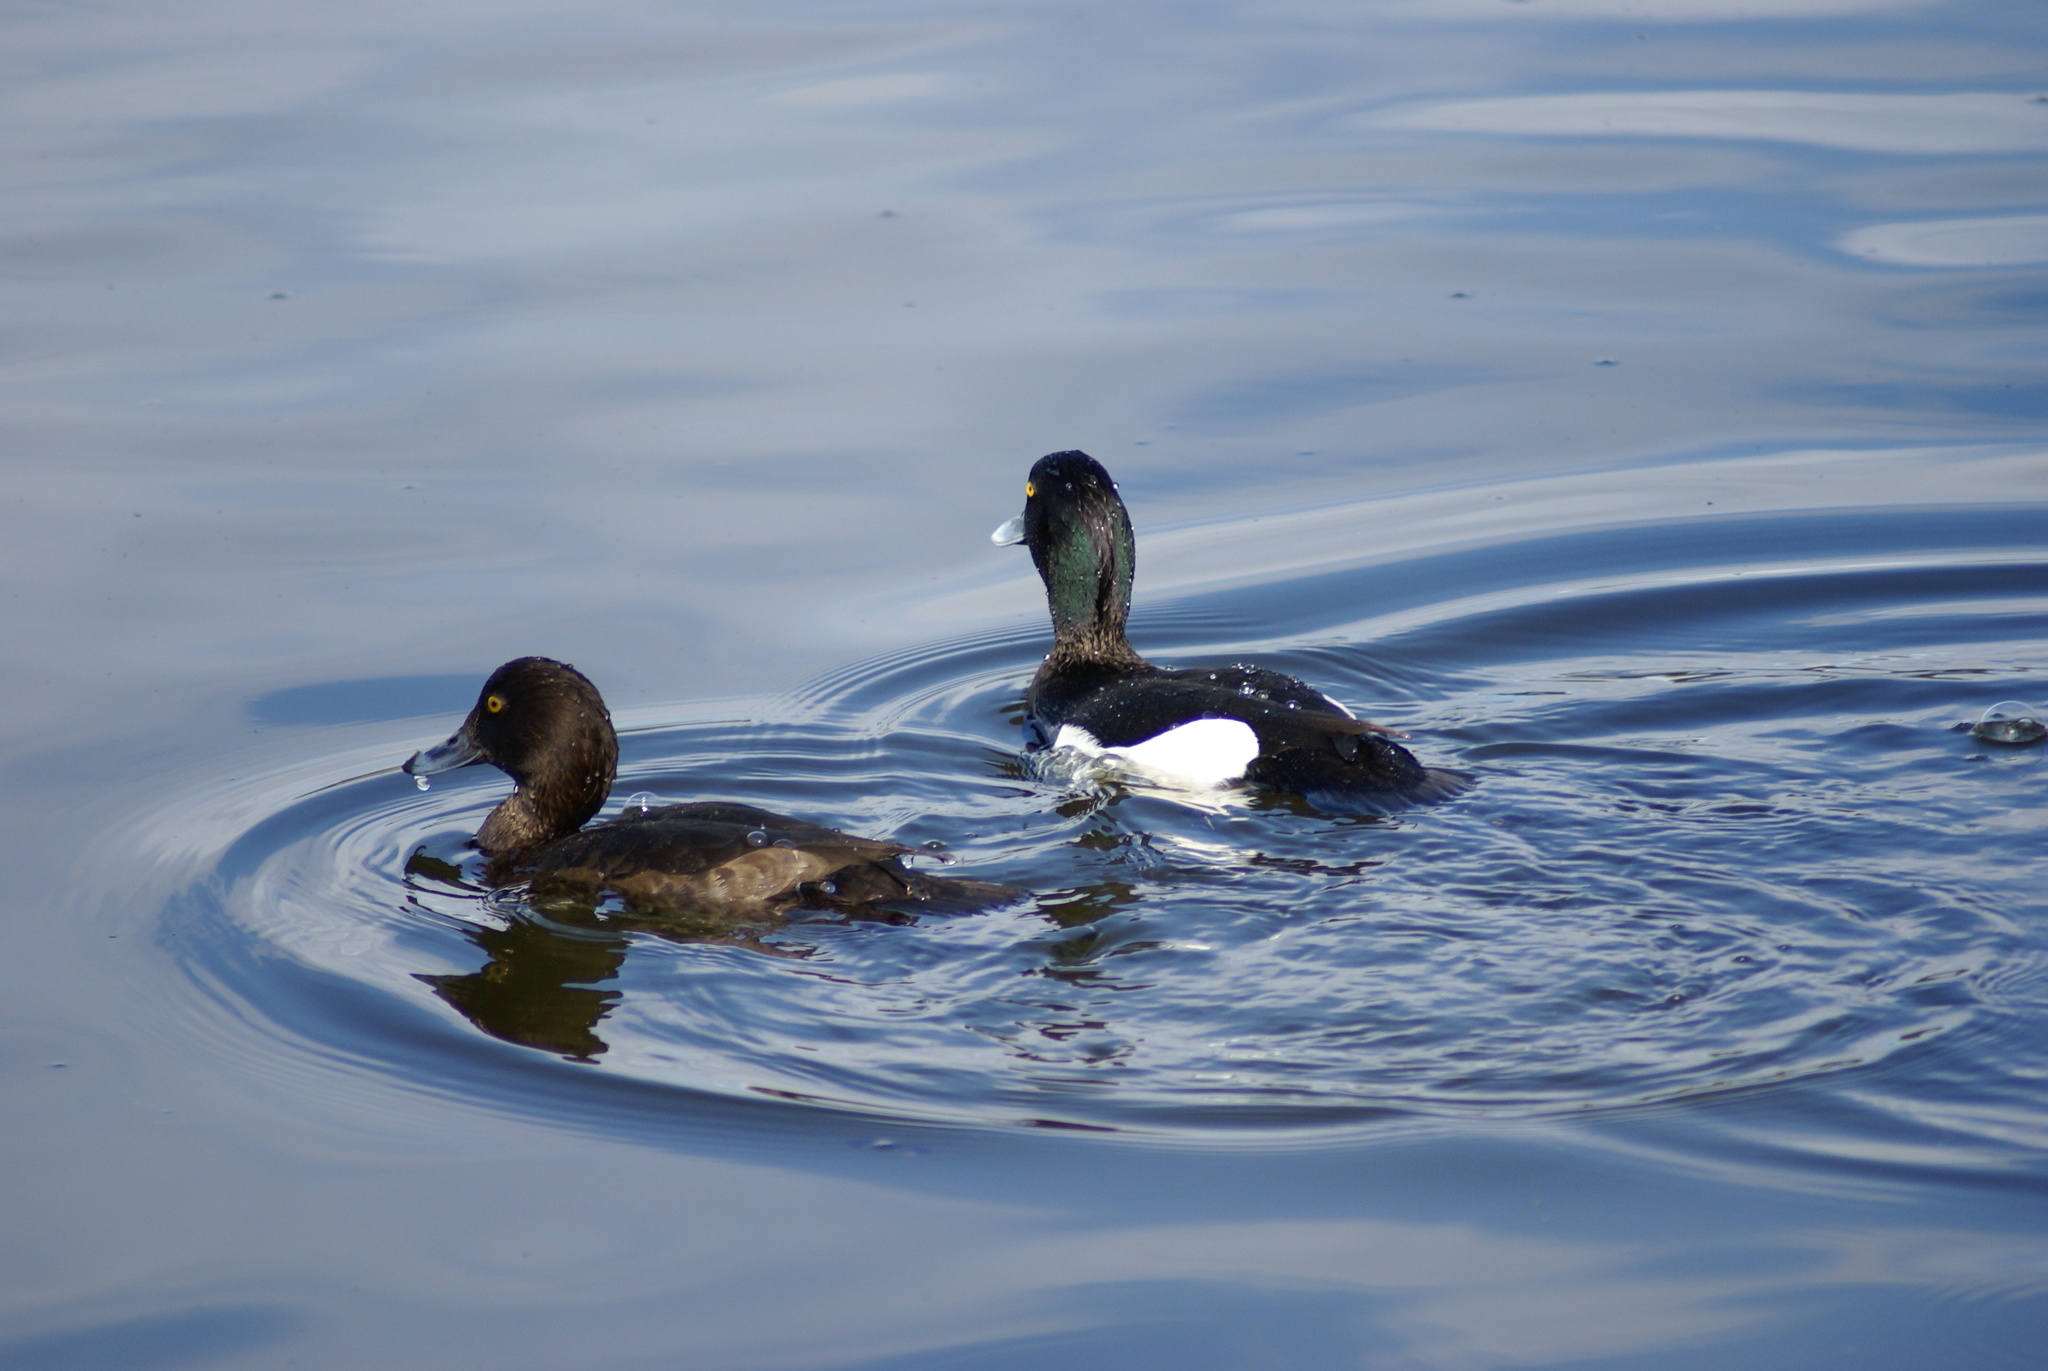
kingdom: Animalia
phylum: Chordata
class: Aves
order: Anseriformes
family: Anatidae
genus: Aythya
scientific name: Aythya fuligula
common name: Tufted duck
